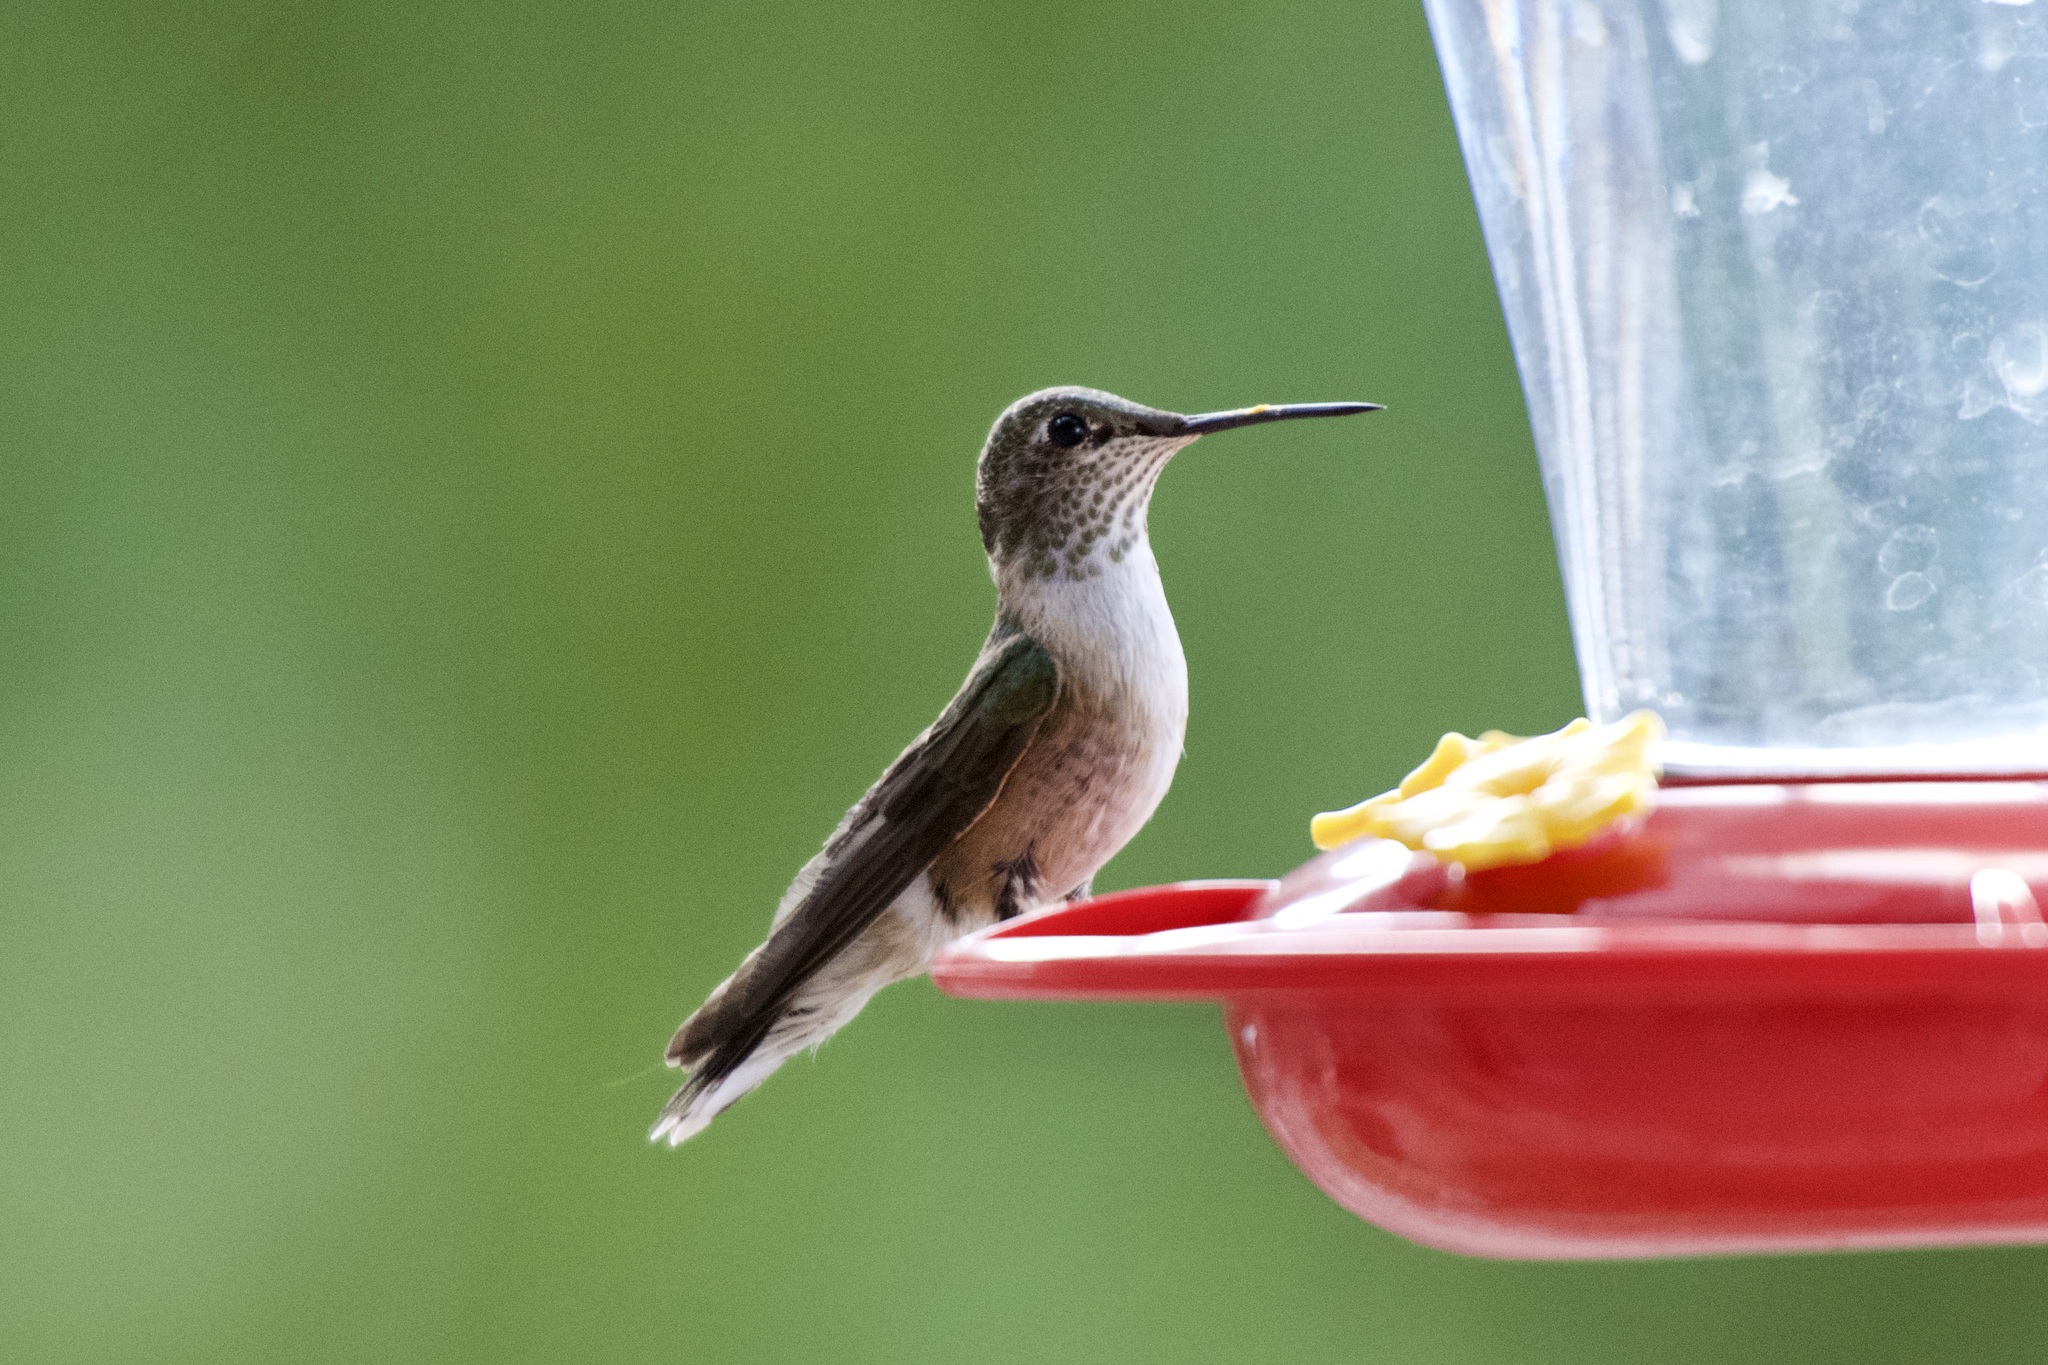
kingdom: Animalia
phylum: Chordata
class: Aves
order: Apodiformes
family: Trochilidae
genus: Selasphorus
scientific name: Selasphorus platycercus
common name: Broad-tailed hummingbird
